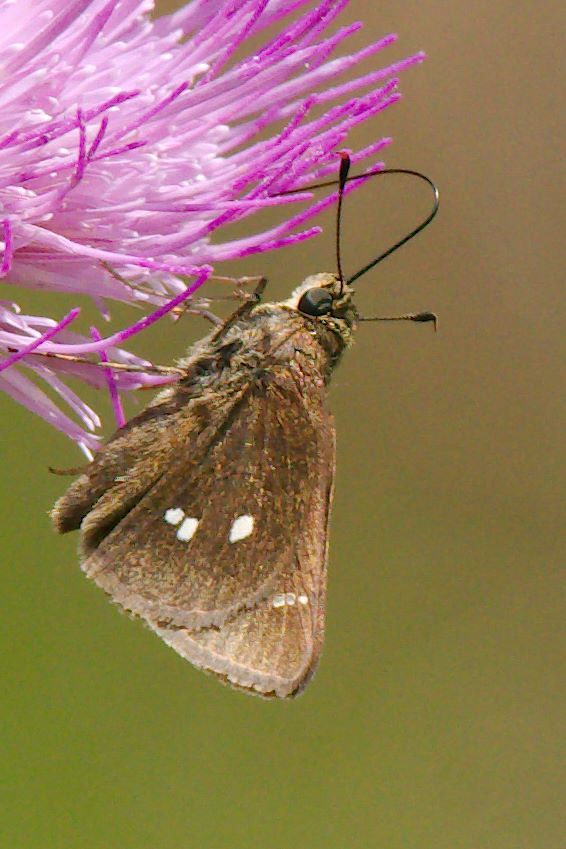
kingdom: Animalia
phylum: Arthropoda
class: Insecta
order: Lepidoptera
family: Hesperiidae
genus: Oligoria
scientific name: Oligoria maculata
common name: Twin-spot skipper
